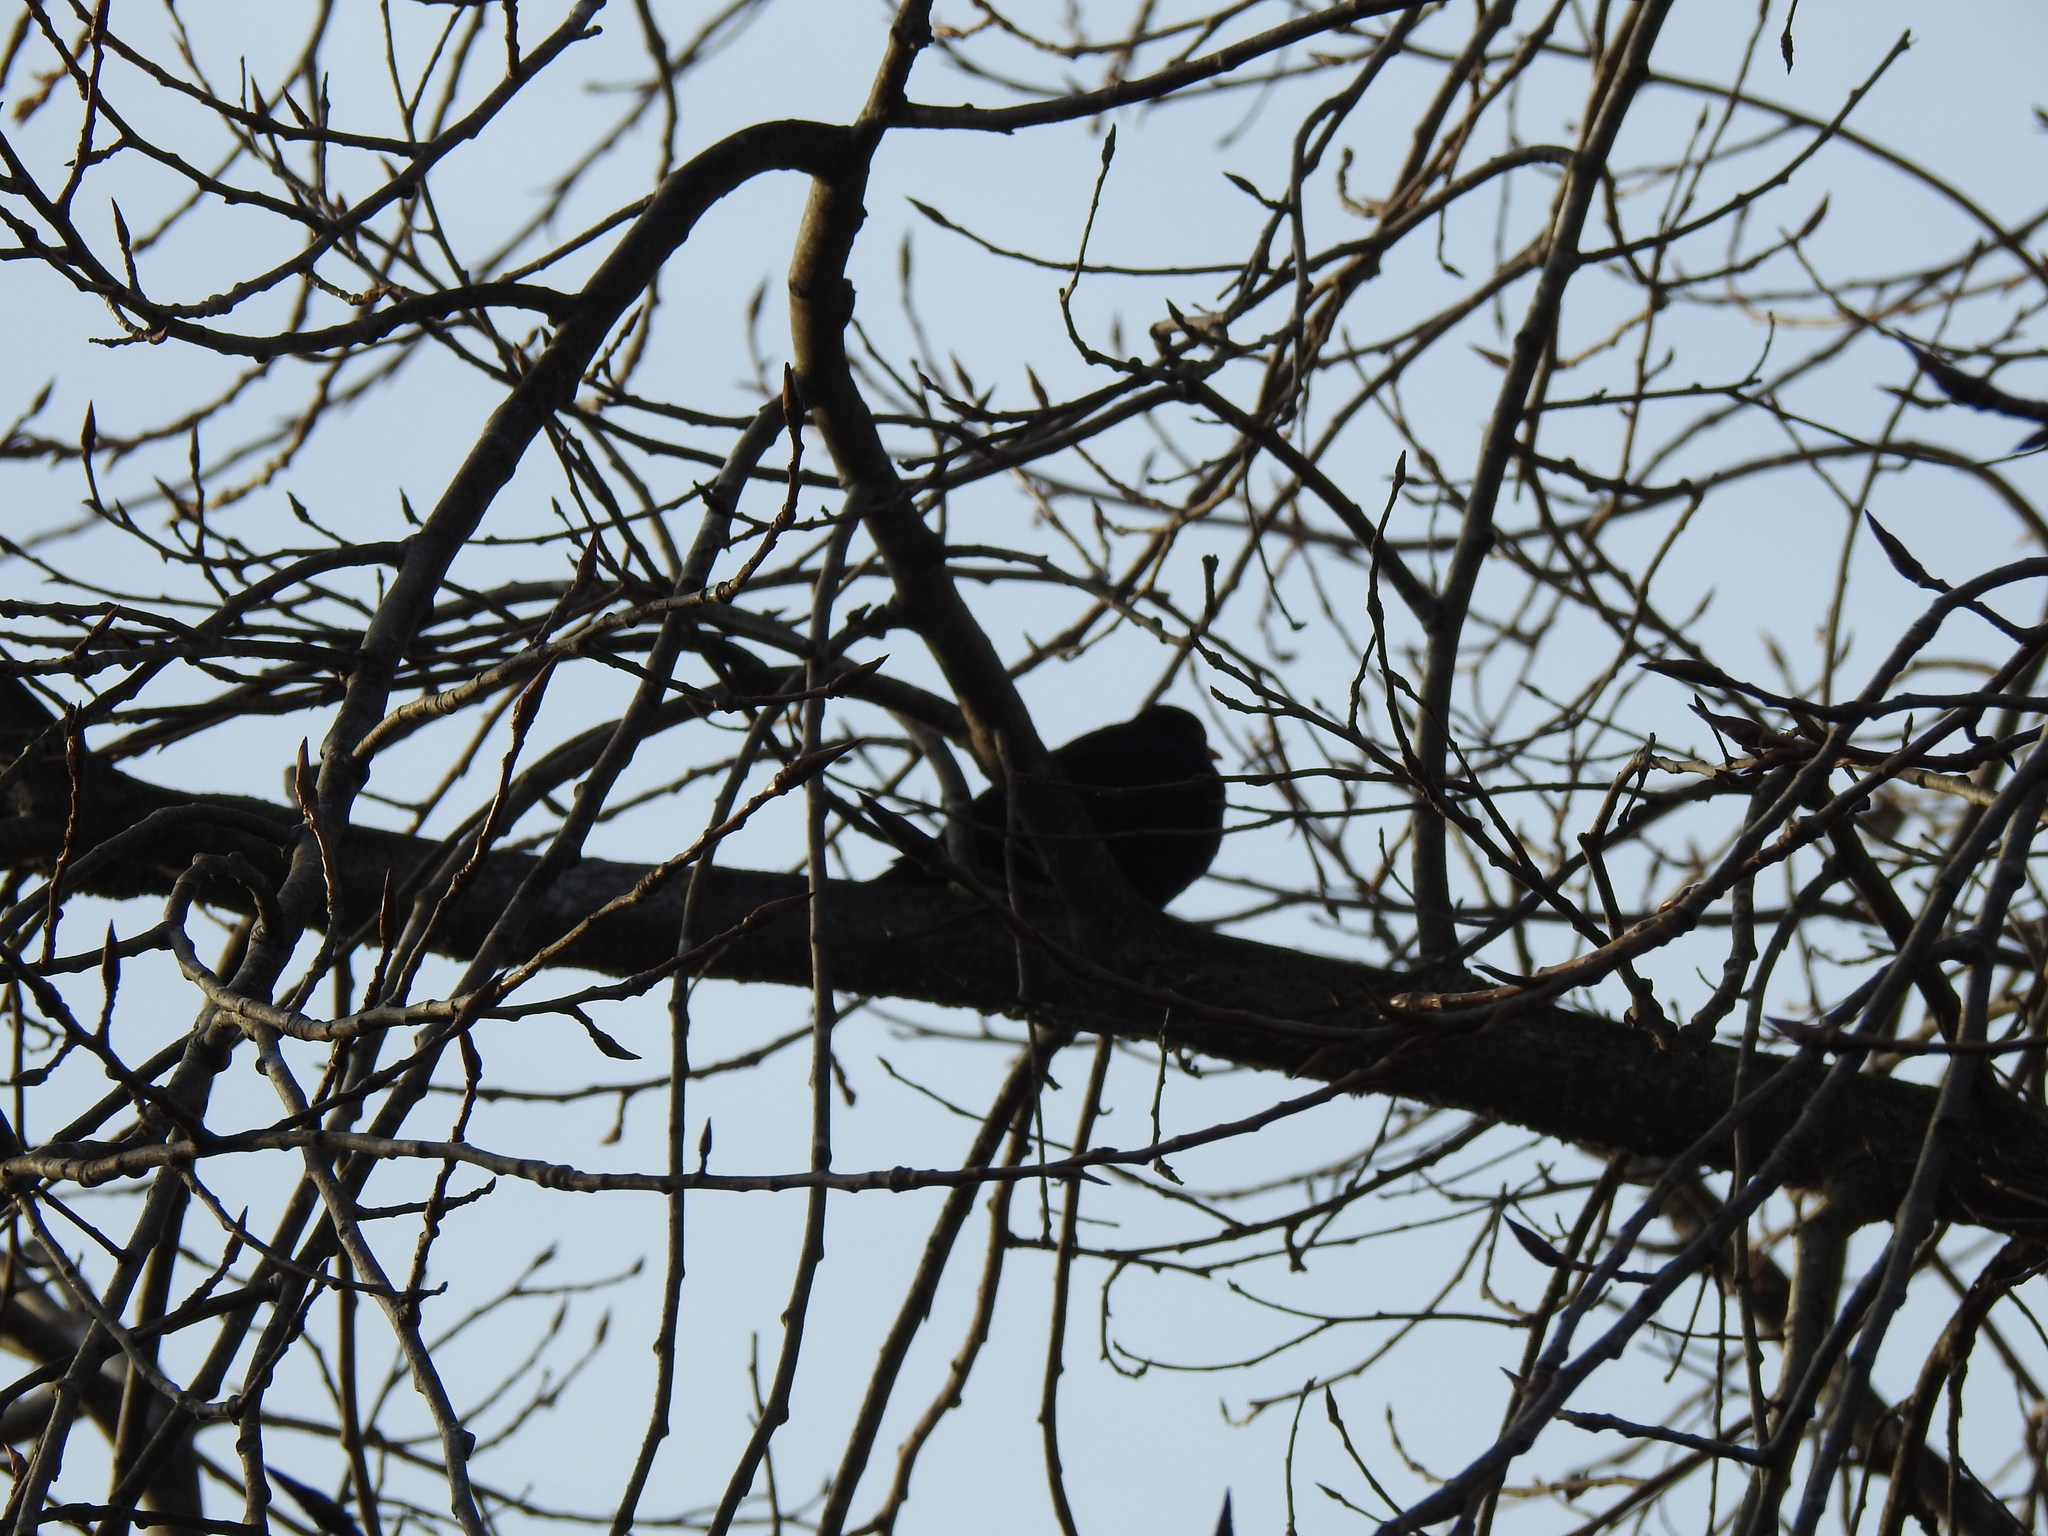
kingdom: Animalia
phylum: Chordata
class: Aves
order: Passeriformes
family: Turdidae
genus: Turdus
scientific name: Turdus merula
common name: Common blackbird
